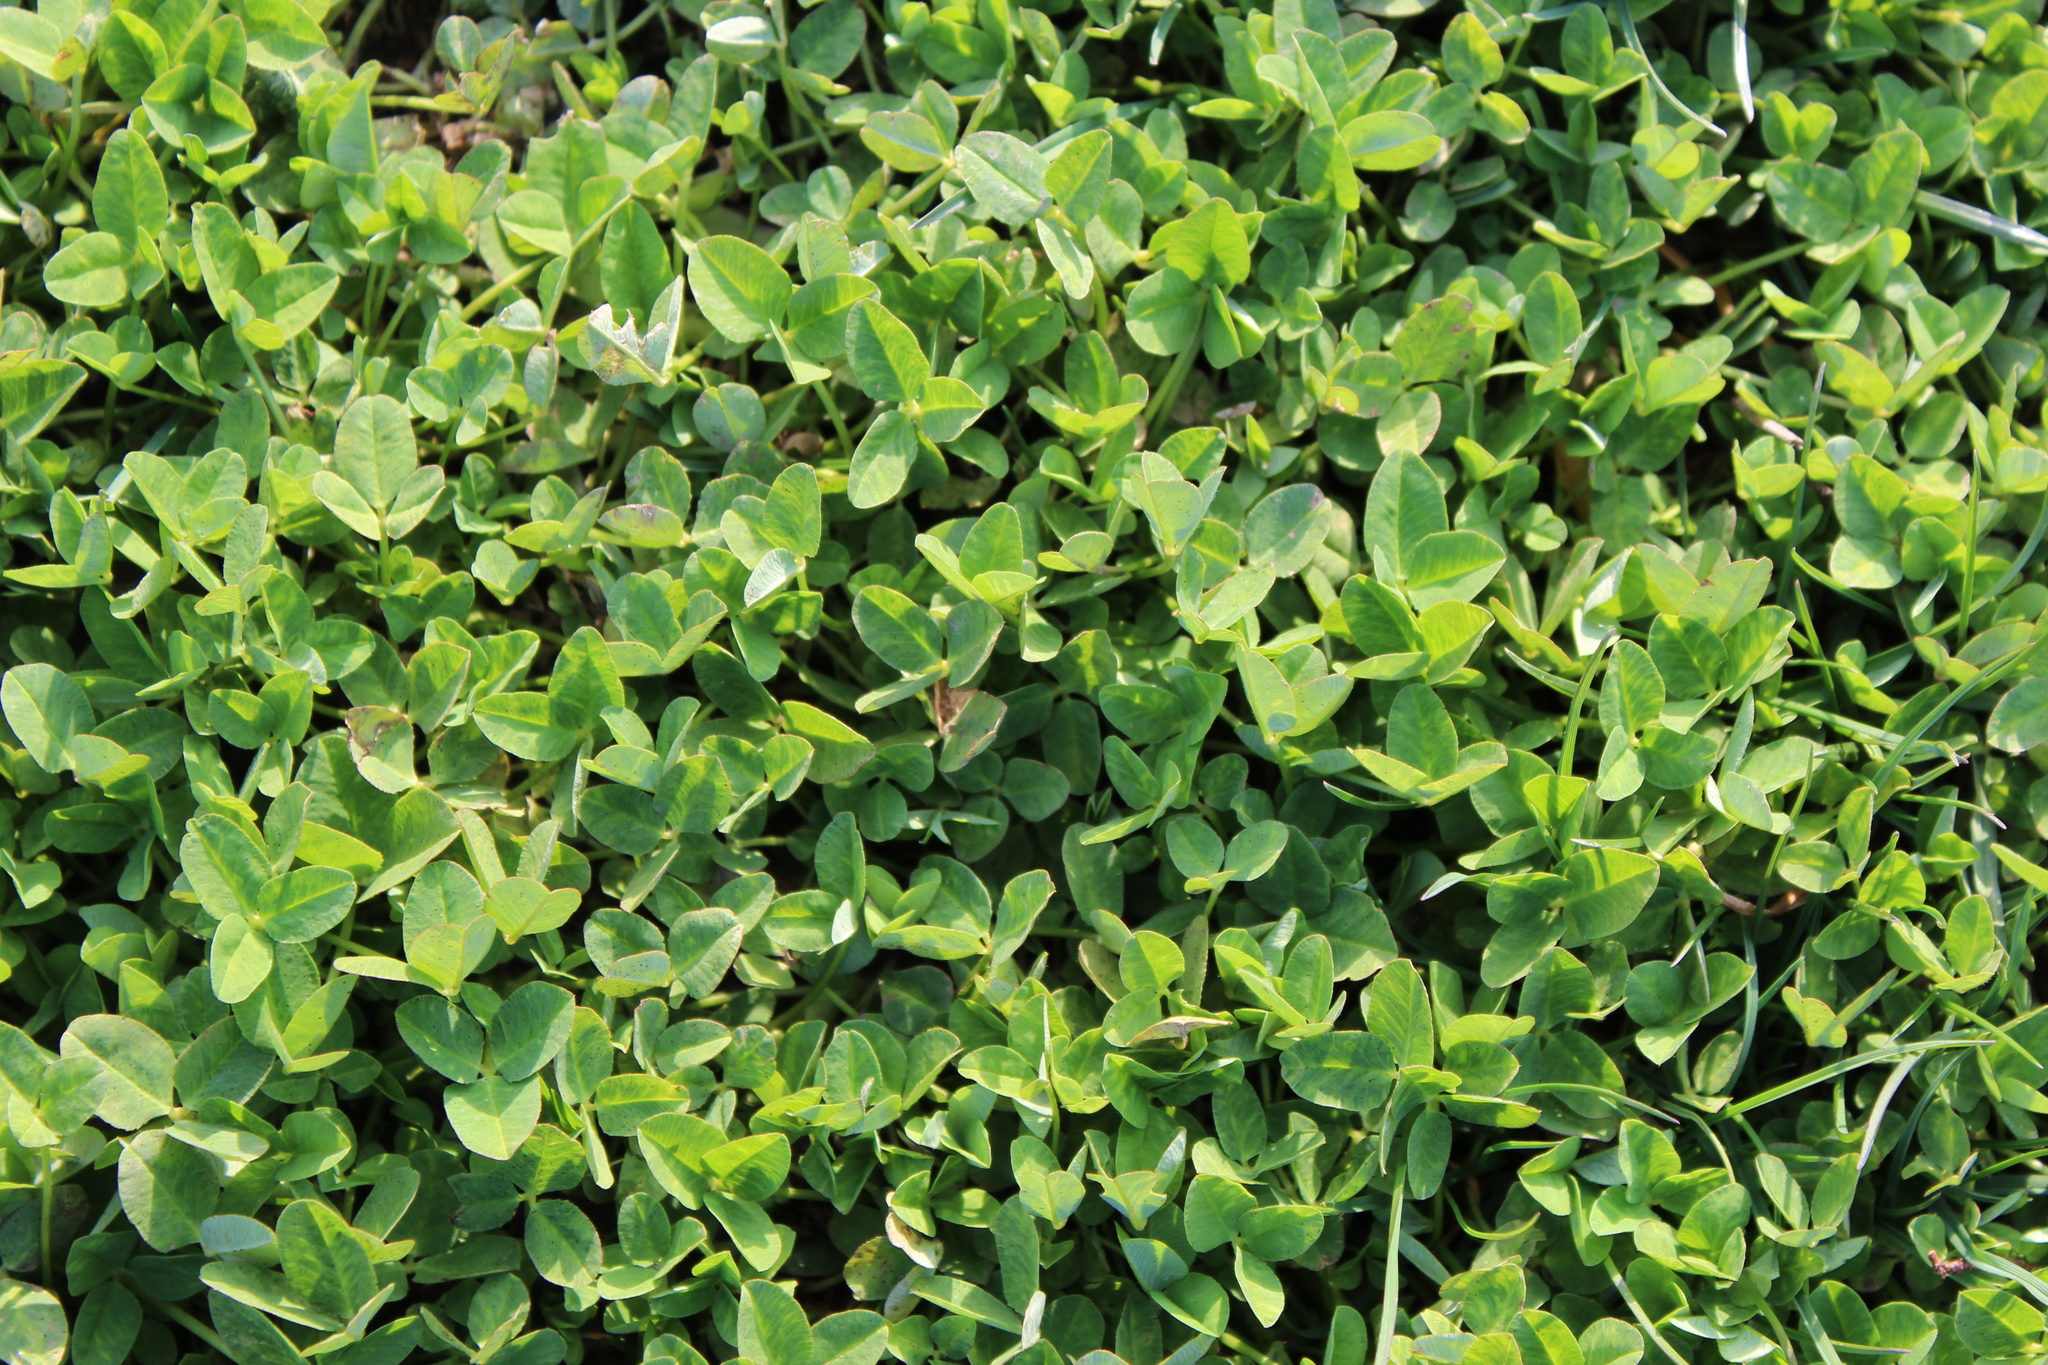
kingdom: Plantae
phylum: Tracheophyta
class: Magnoliopsida
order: Fabales
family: Fabaceae
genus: Trifolium
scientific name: Trifolium repens
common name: White clover
